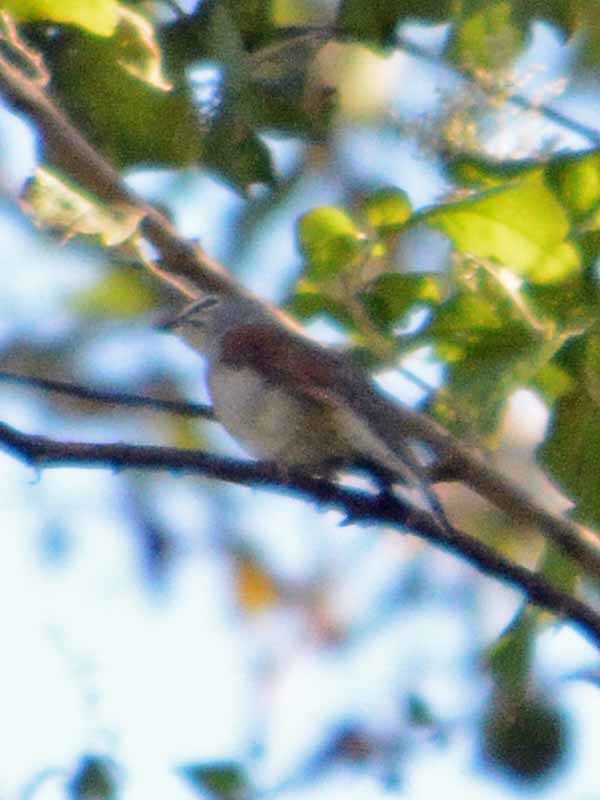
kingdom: Animalia
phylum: Chordata
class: Aves
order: Passeriformes
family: Turdidae
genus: Myadestes
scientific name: Myadestes occidentalis
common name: Brown-backed solitaire
